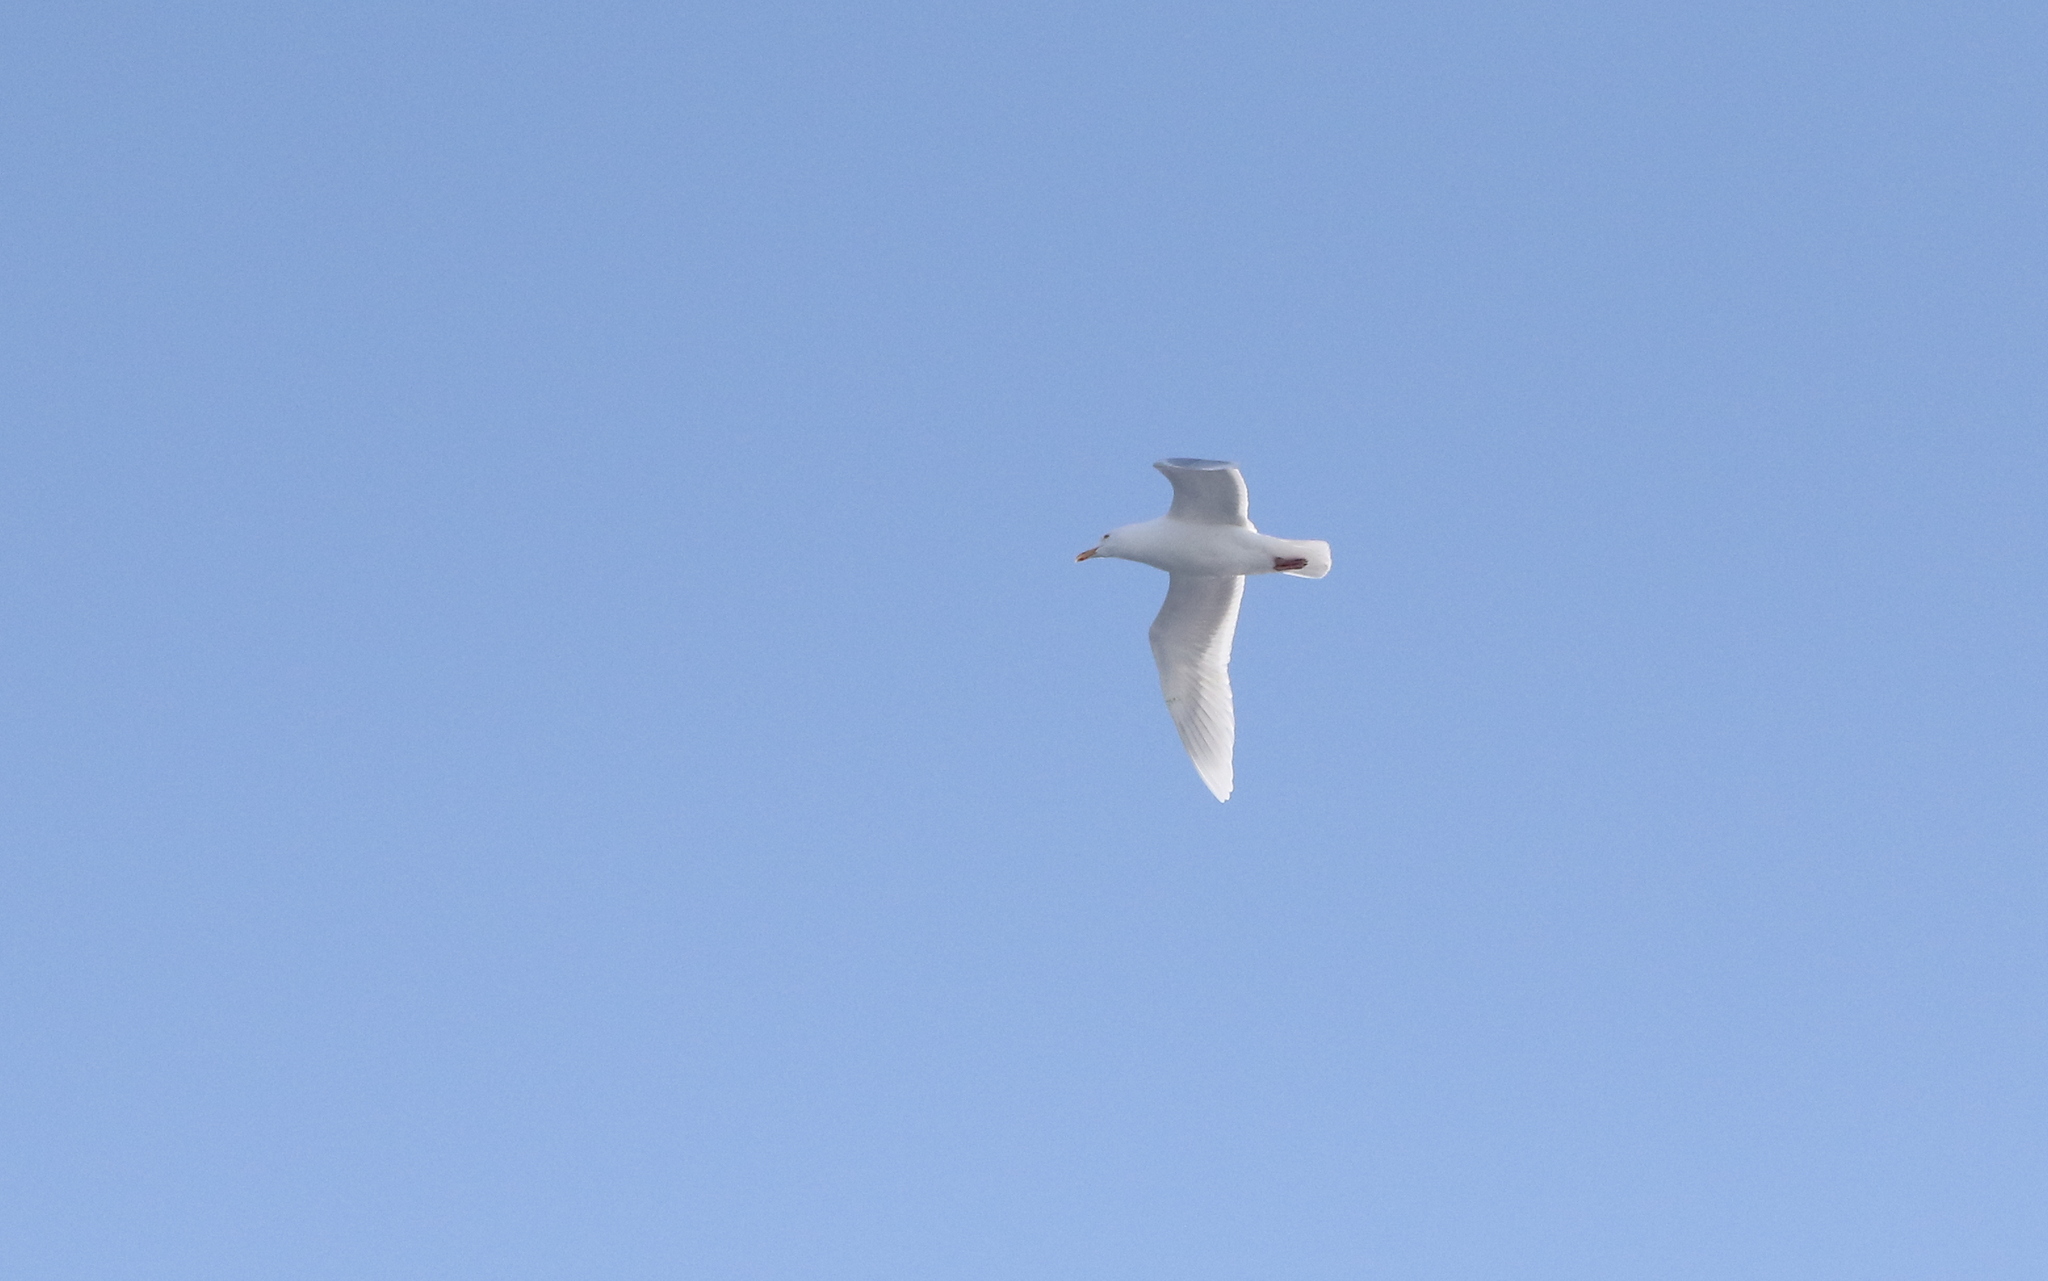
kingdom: Animalia
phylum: Chordata
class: Aves
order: Charadriiformes
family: Laridae
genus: Larus
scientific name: Larus hyperboreus
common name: Glaucous gull
